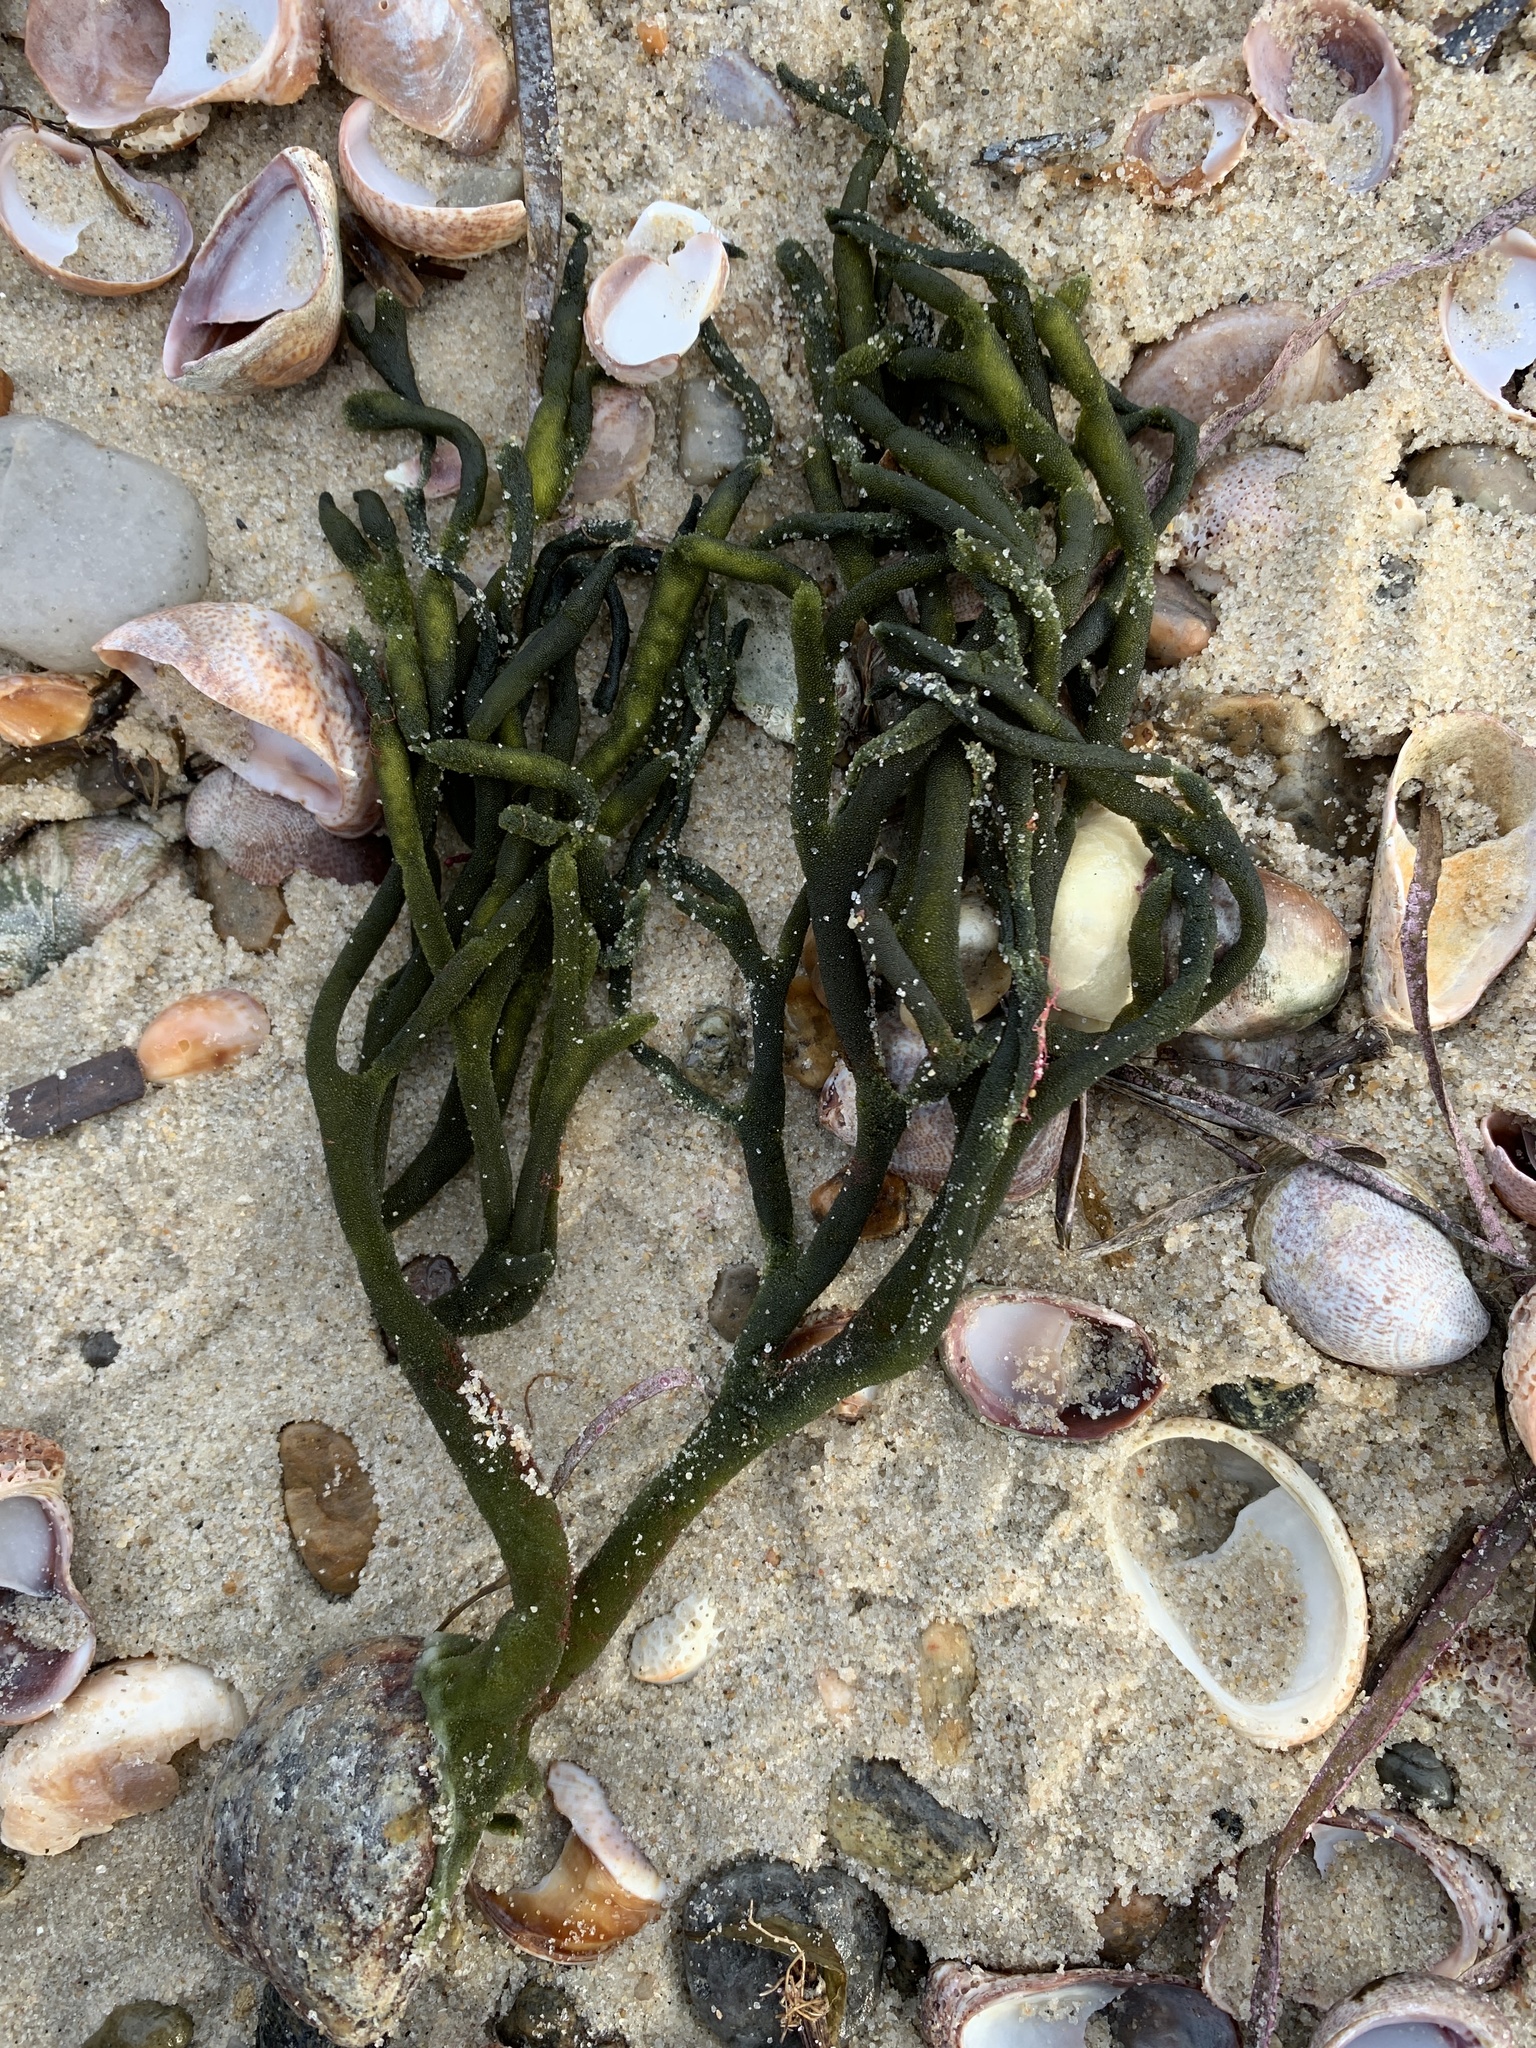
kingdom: Plantae
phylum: Chlorophyta
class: Ulvophyceae
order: Bryopsidales
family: Codiaceae
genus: Codium
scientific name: Codium fragile
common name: Dead man's fingers
